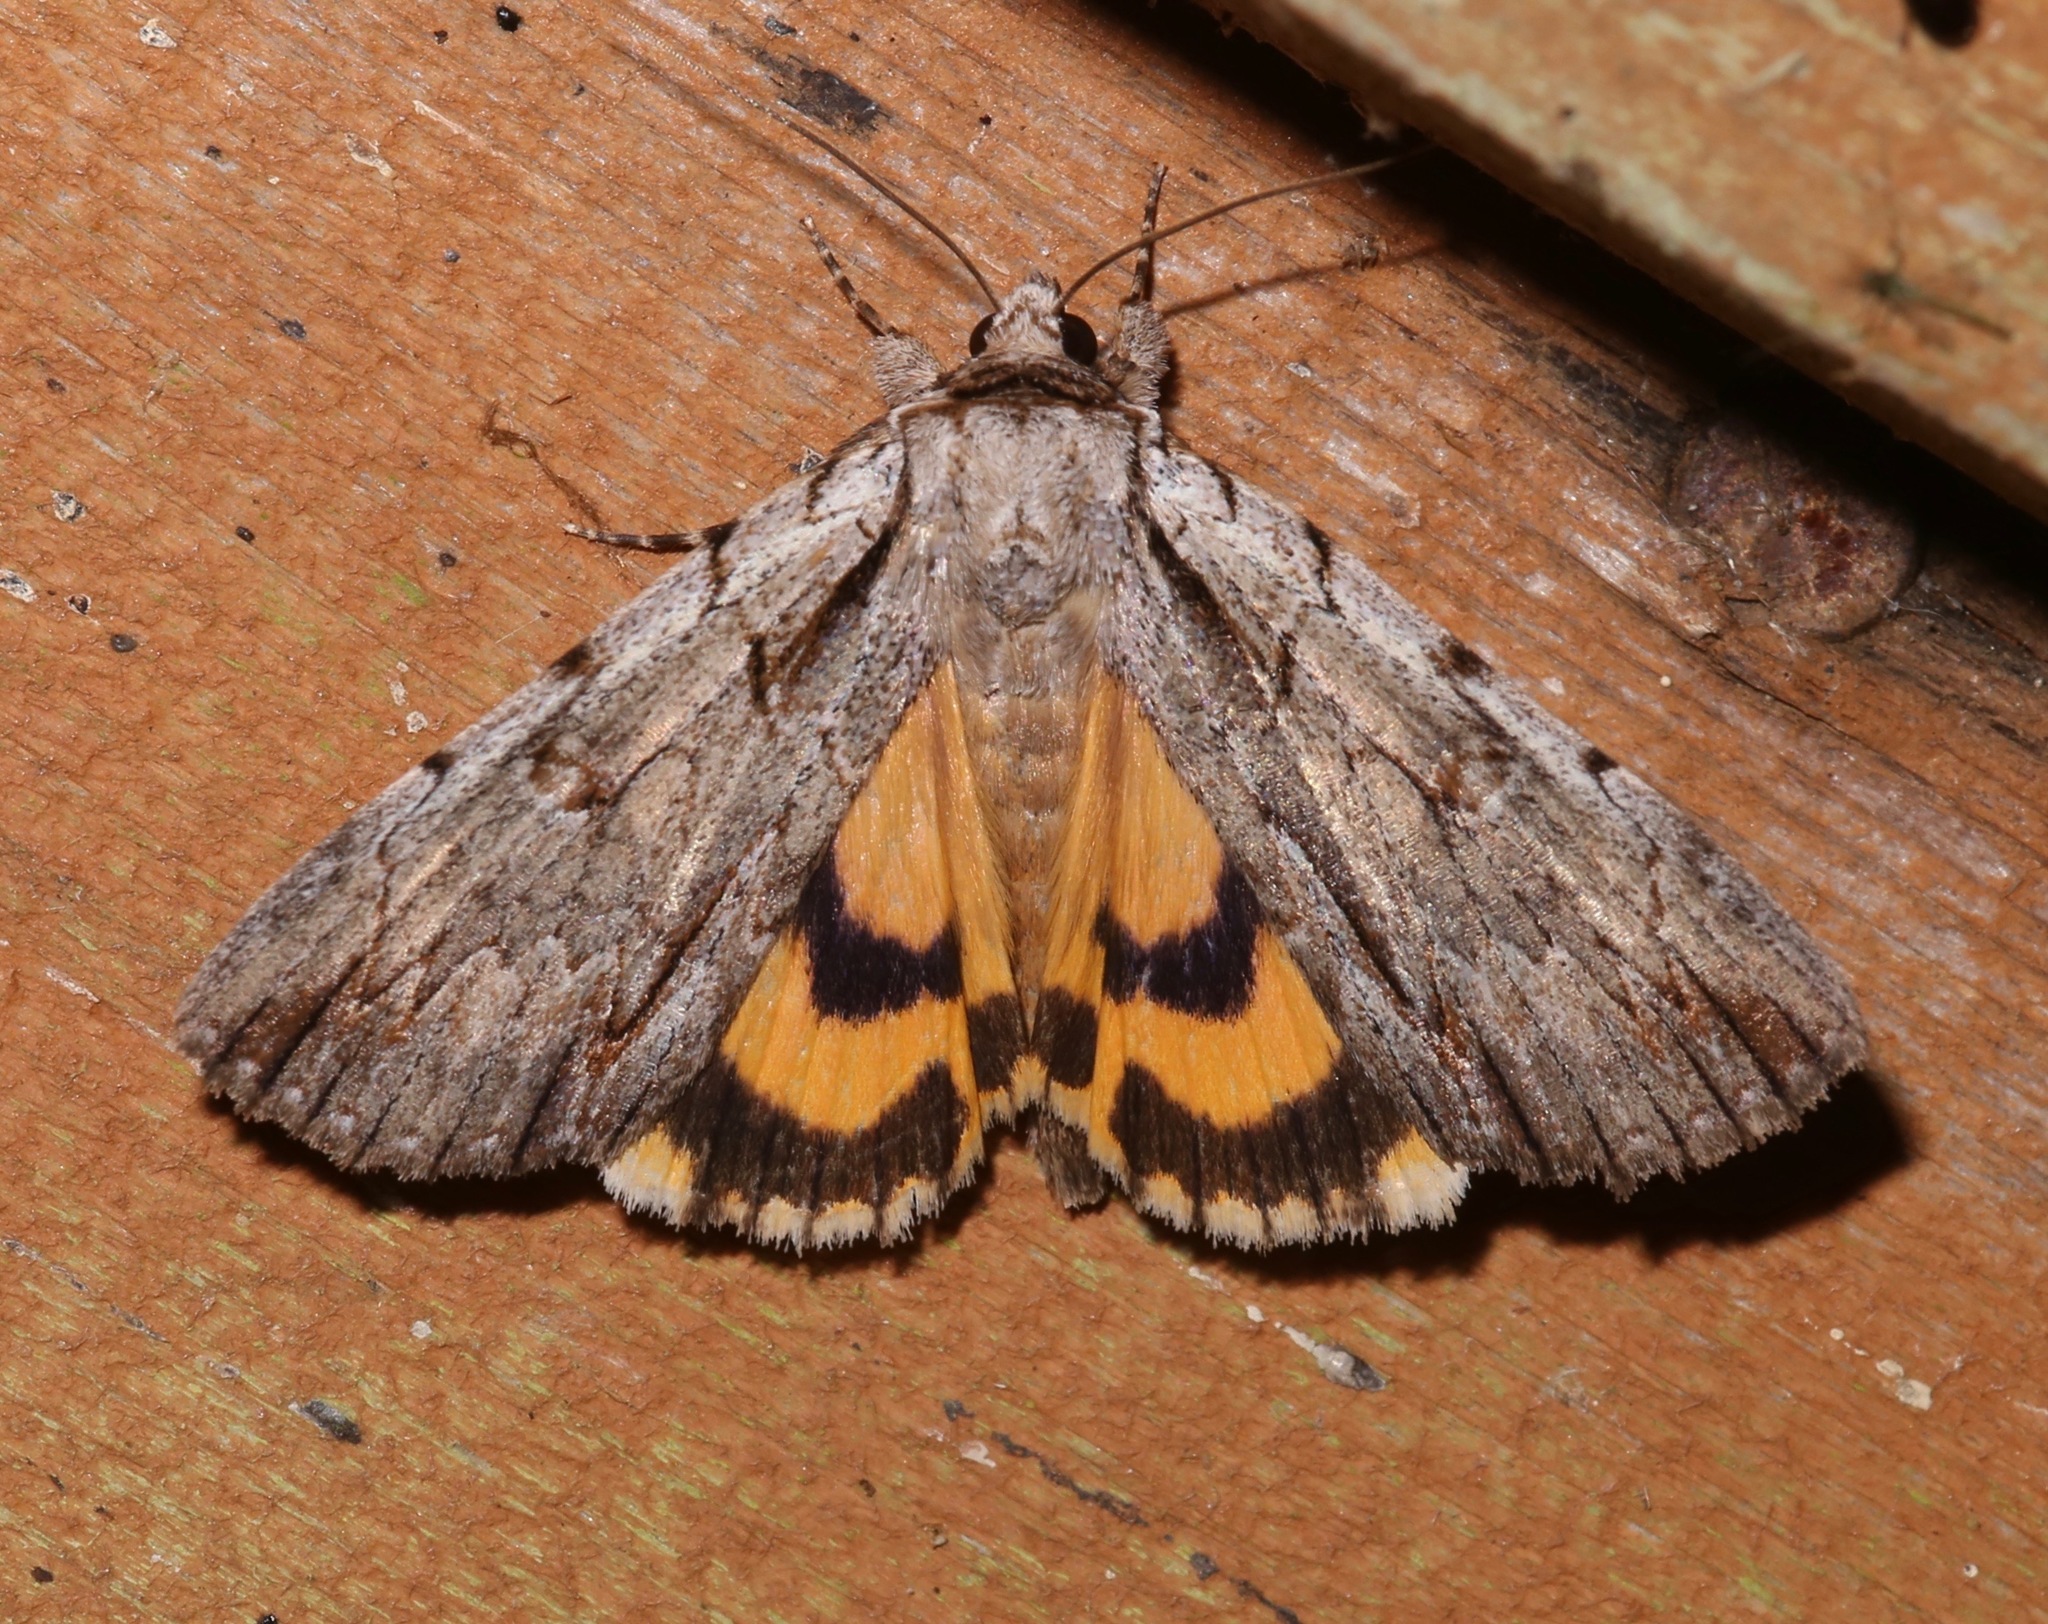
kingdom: Animalia
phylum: Arthropoda
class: Insecta
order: Lepidoptera
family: Erebidae
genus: Catocala
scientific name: Catocala clintonii
